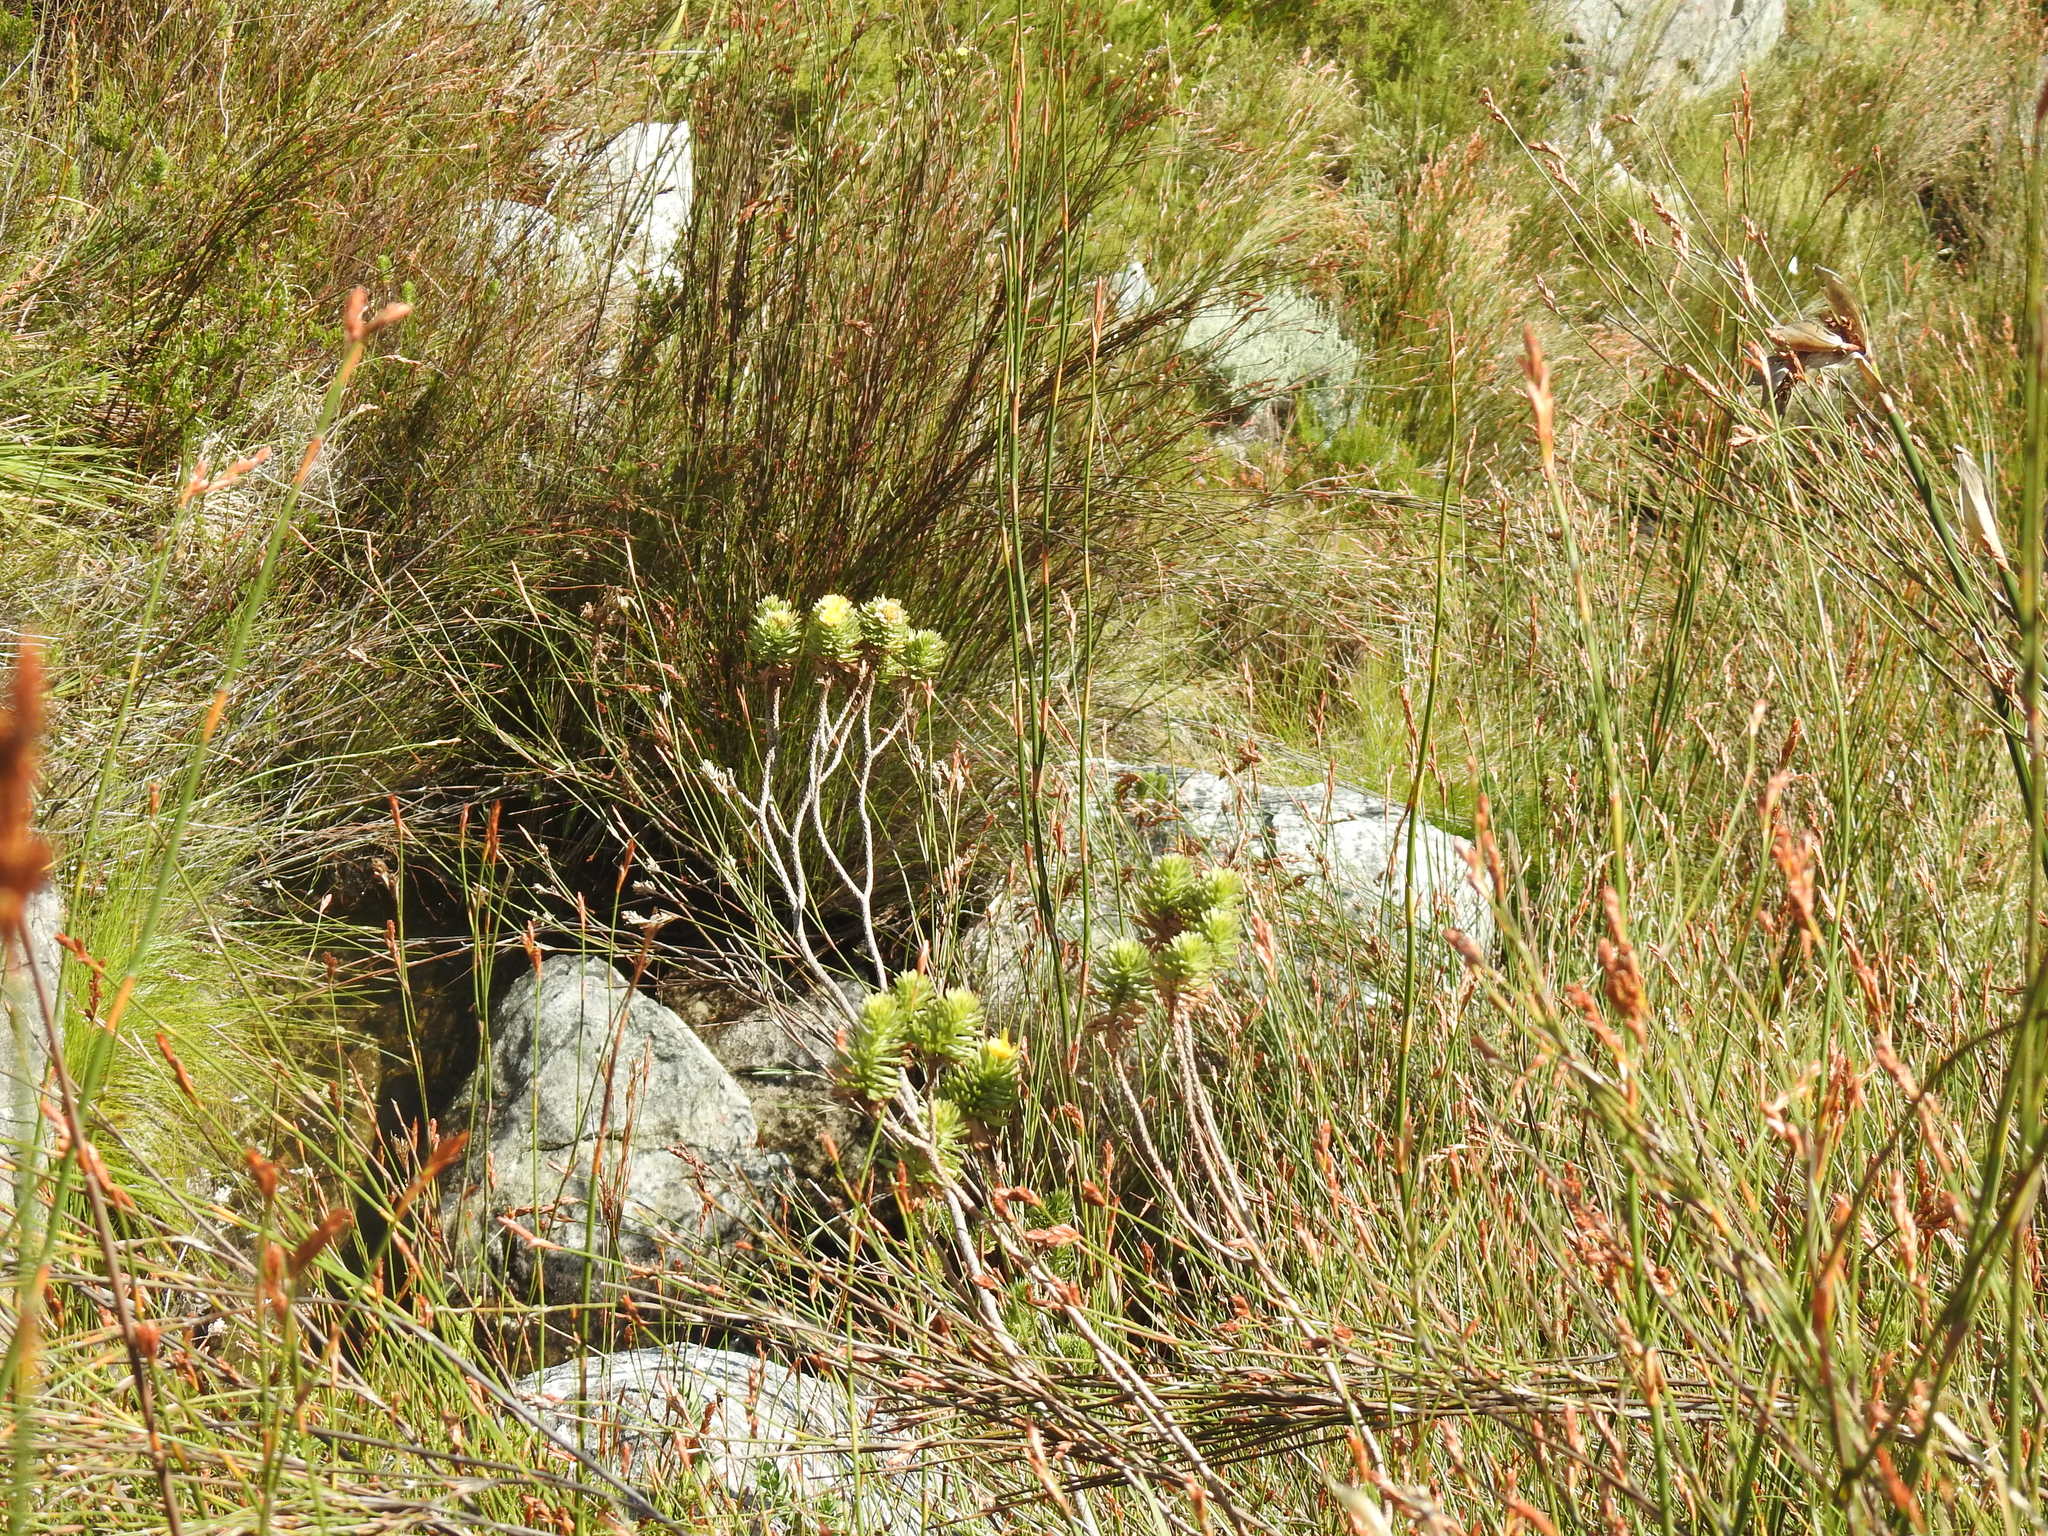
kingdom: Plantae
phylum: Tracheophyta
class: Magnoliopsida
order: Asterales
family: Asteraceae
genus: Osmitopsis
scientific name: Osmitopsis asteriscoides
